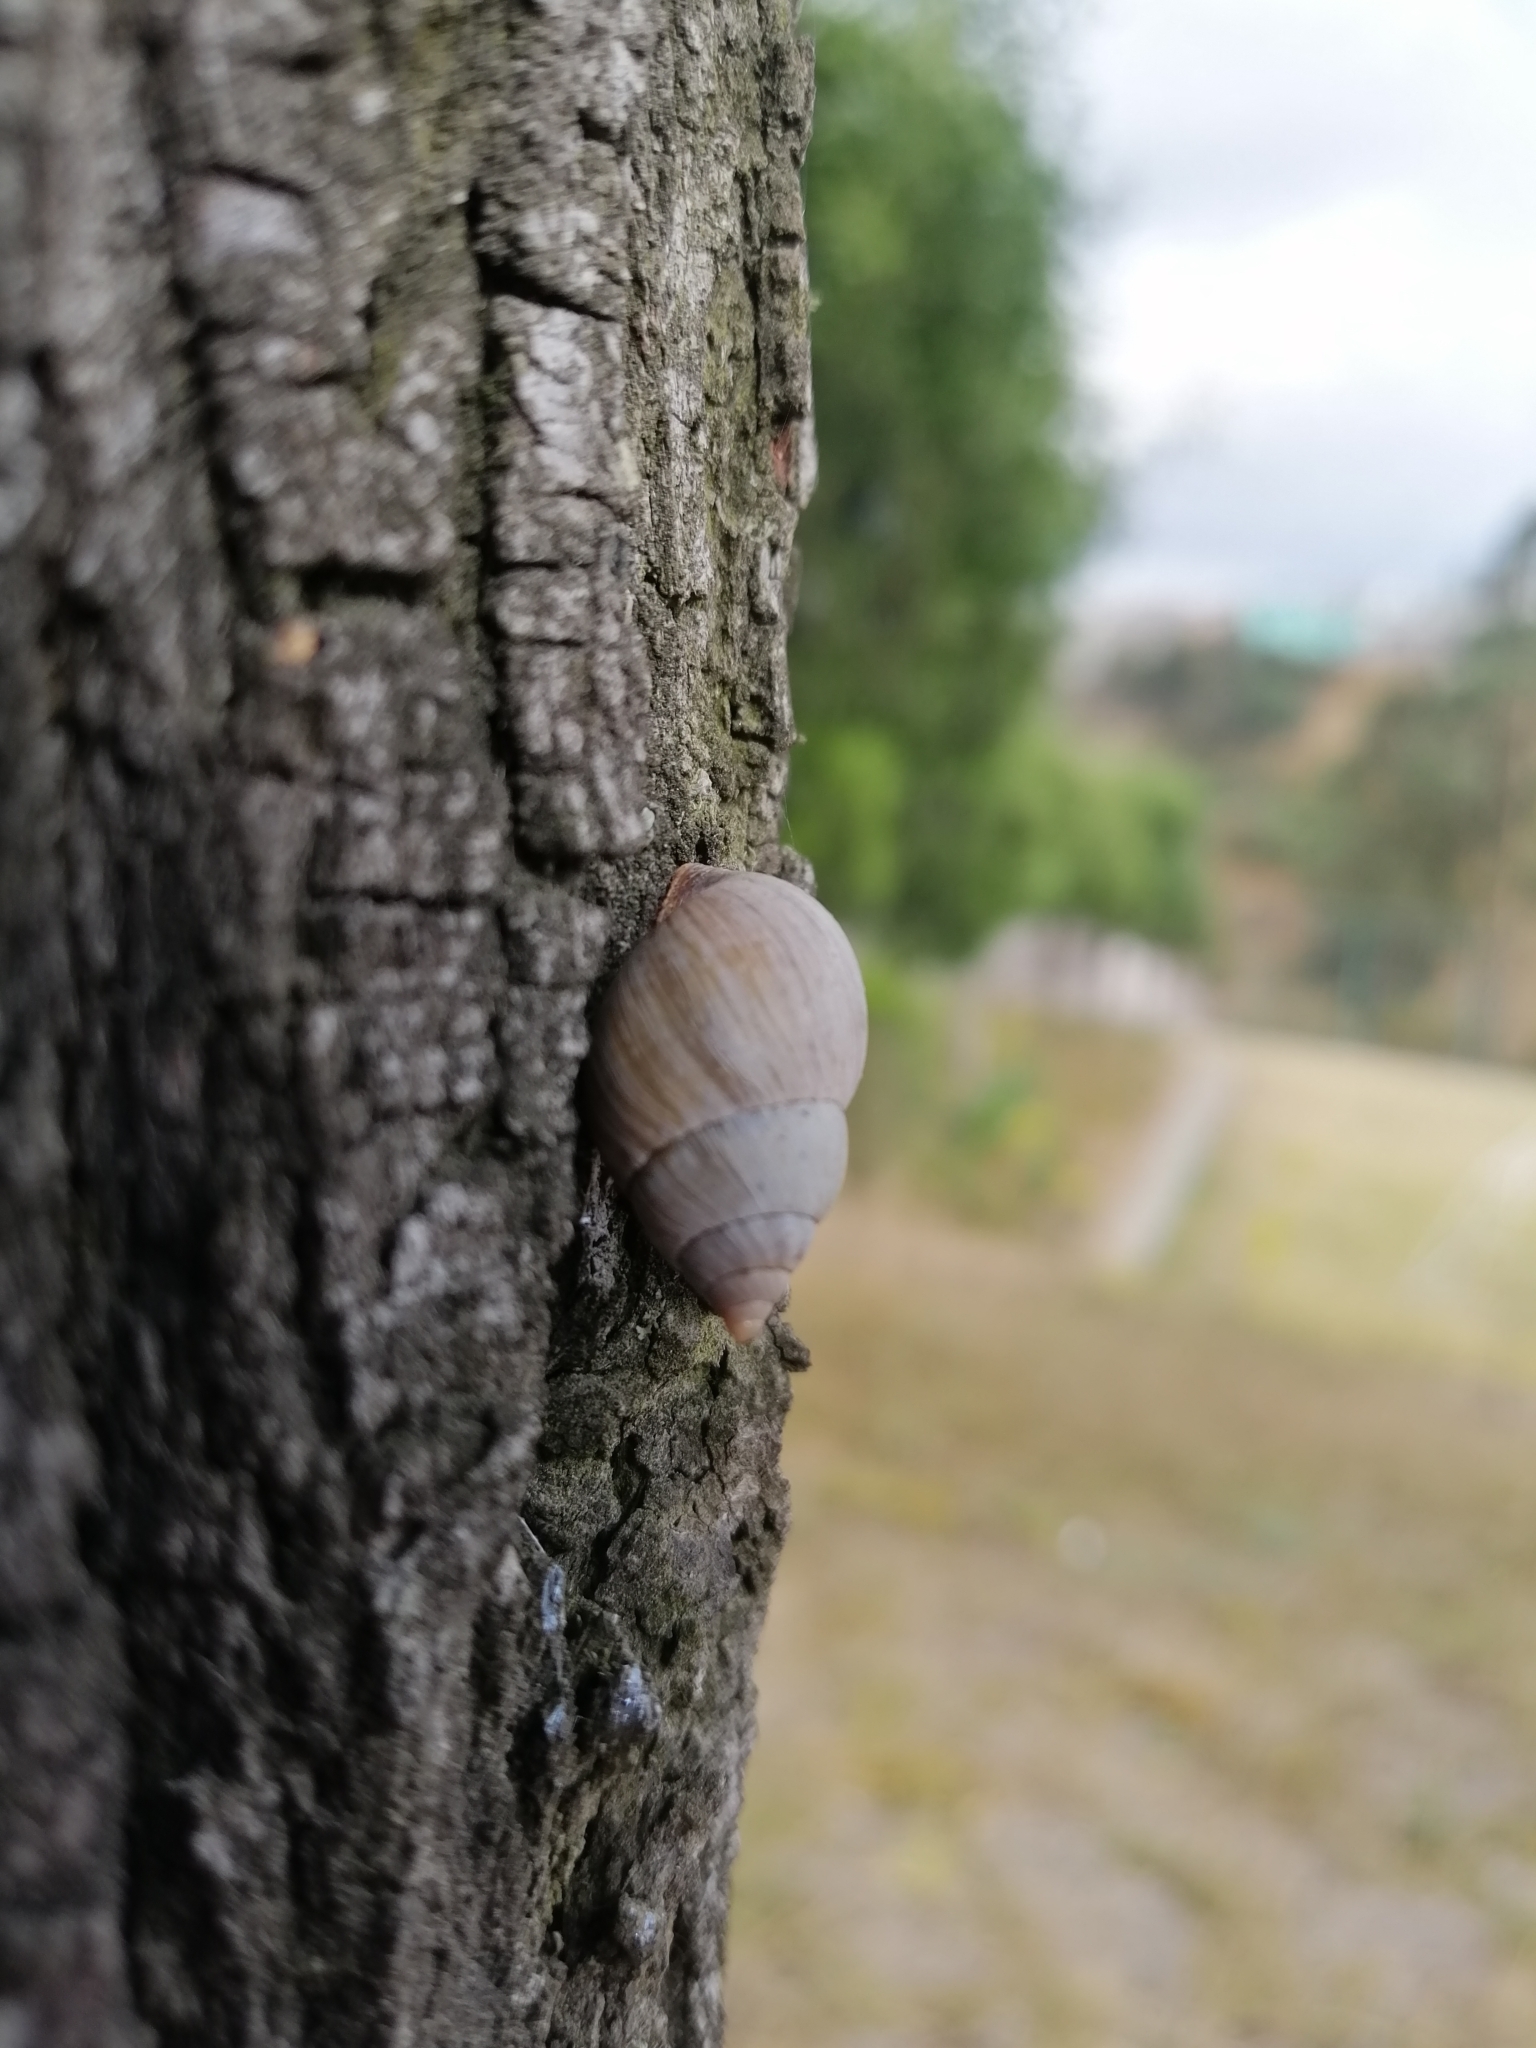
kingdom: Animalia
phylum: Mollusca
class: Gastropoda
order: Stylommatophora
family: Bulimulidae
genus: Naesiotus
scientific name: Naesiotus quitensis
